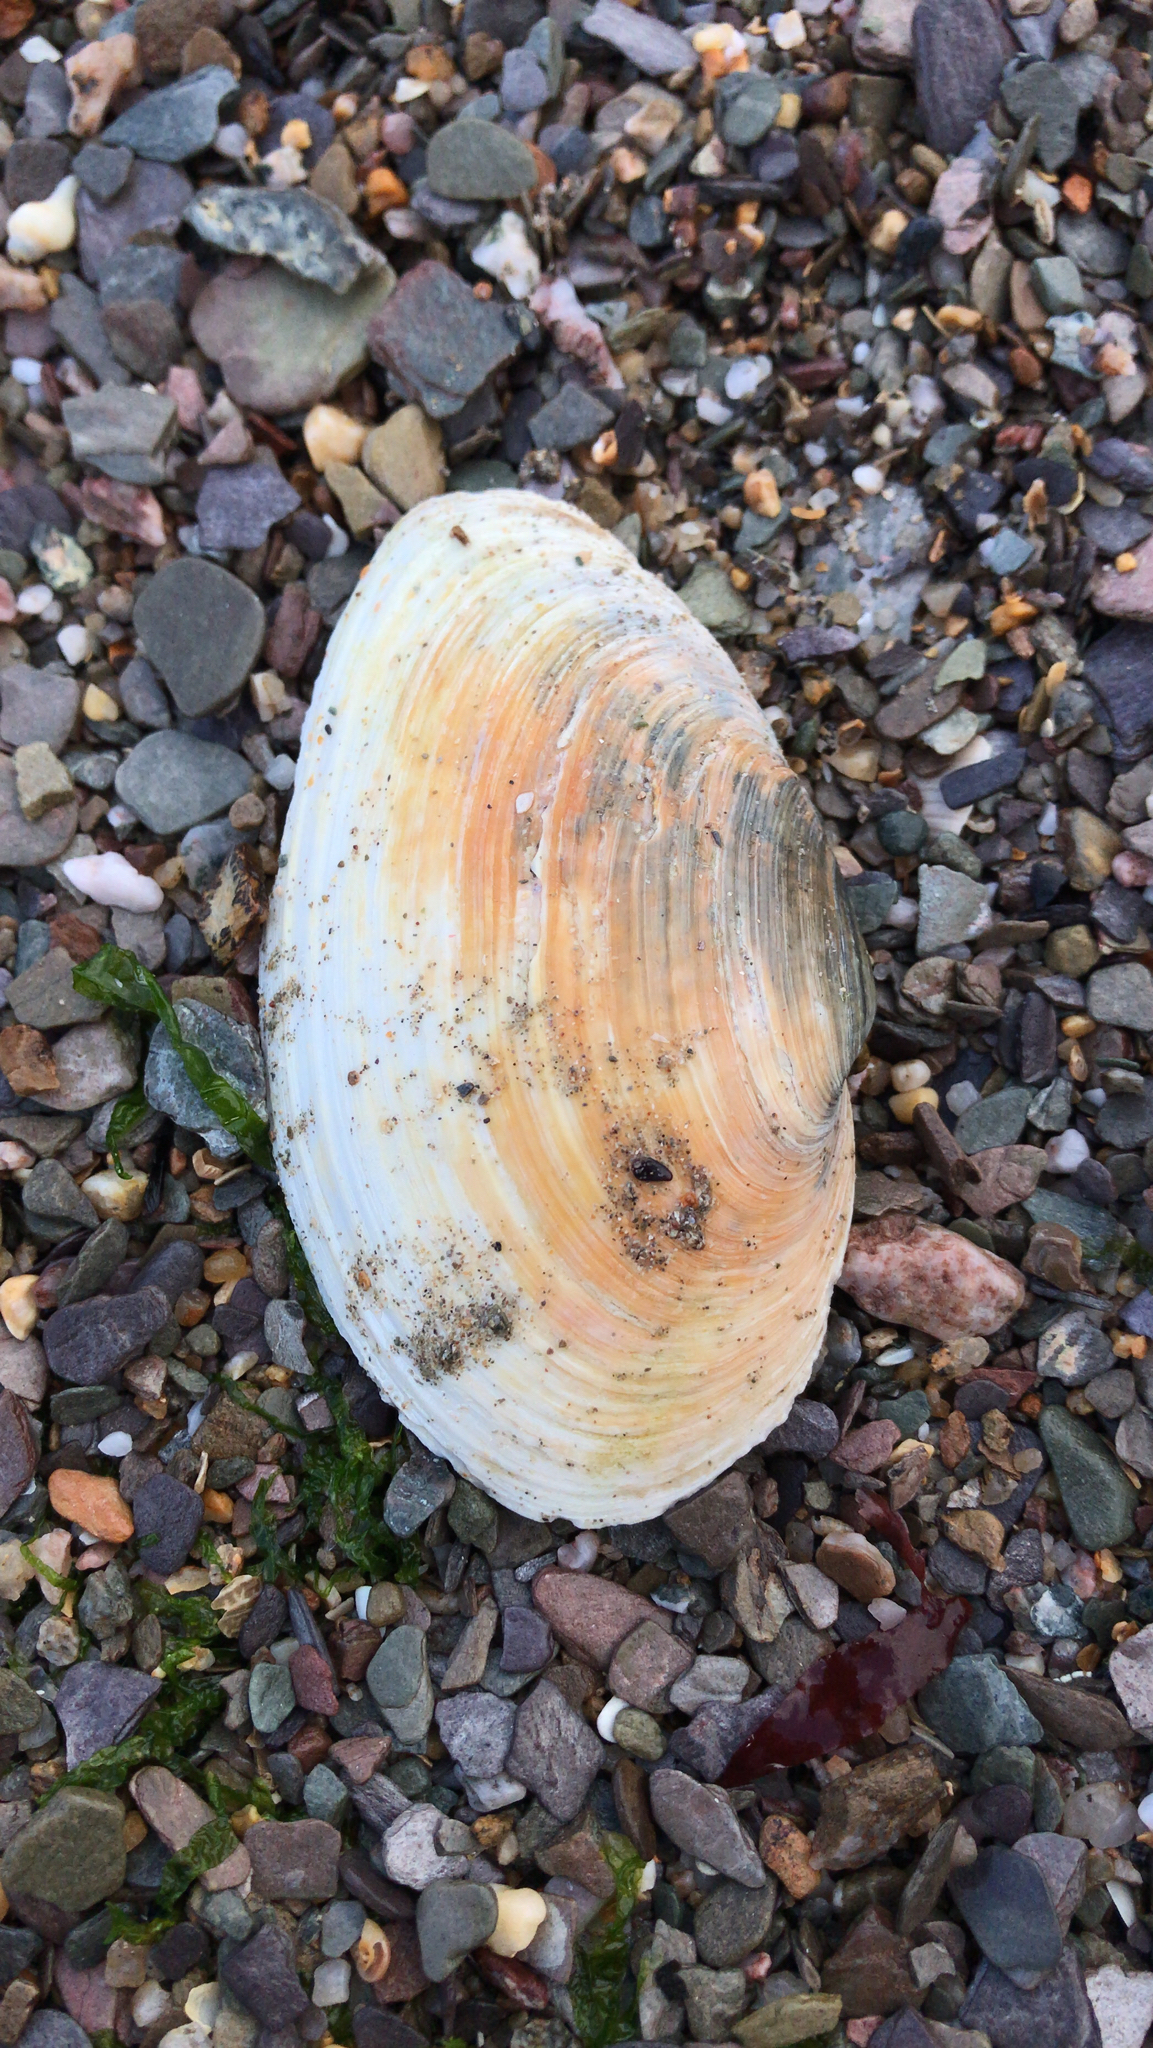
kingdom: Animalia
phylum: Mollusca
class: Bivalvia
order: Myida
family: Myidae
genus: Mya
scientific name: Mya arenaria
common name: Soft-shelled clam
